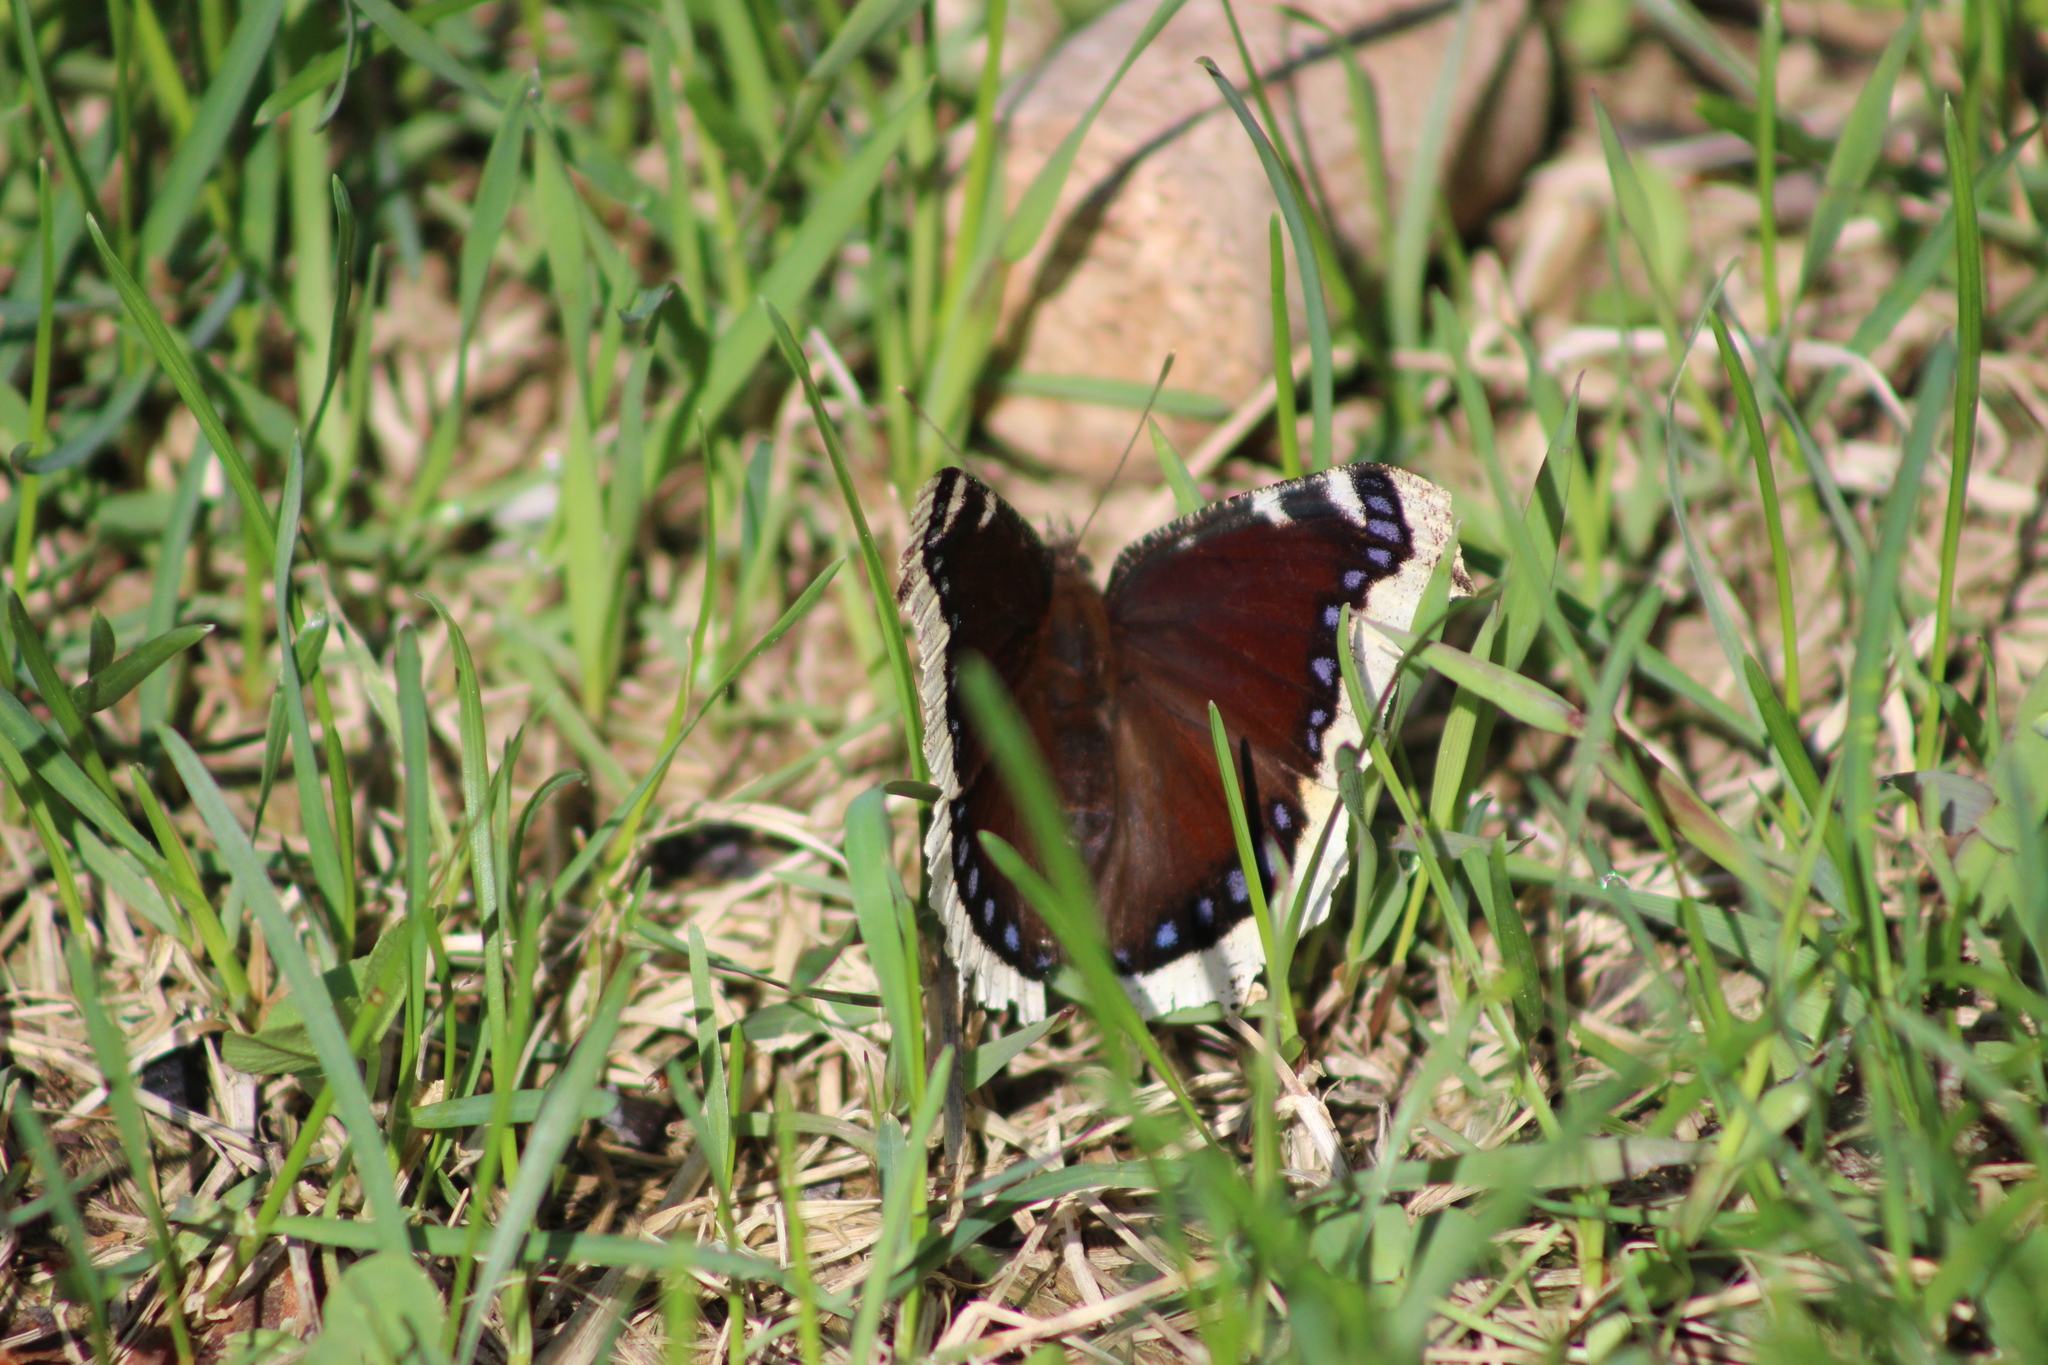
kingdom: Animalia
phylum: Arthropoda
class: Insecta
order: Lepidoptera
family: Nymphalidae
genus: Nymphalis
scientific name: Nymphalis antiopa
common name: Camberwell beauty
